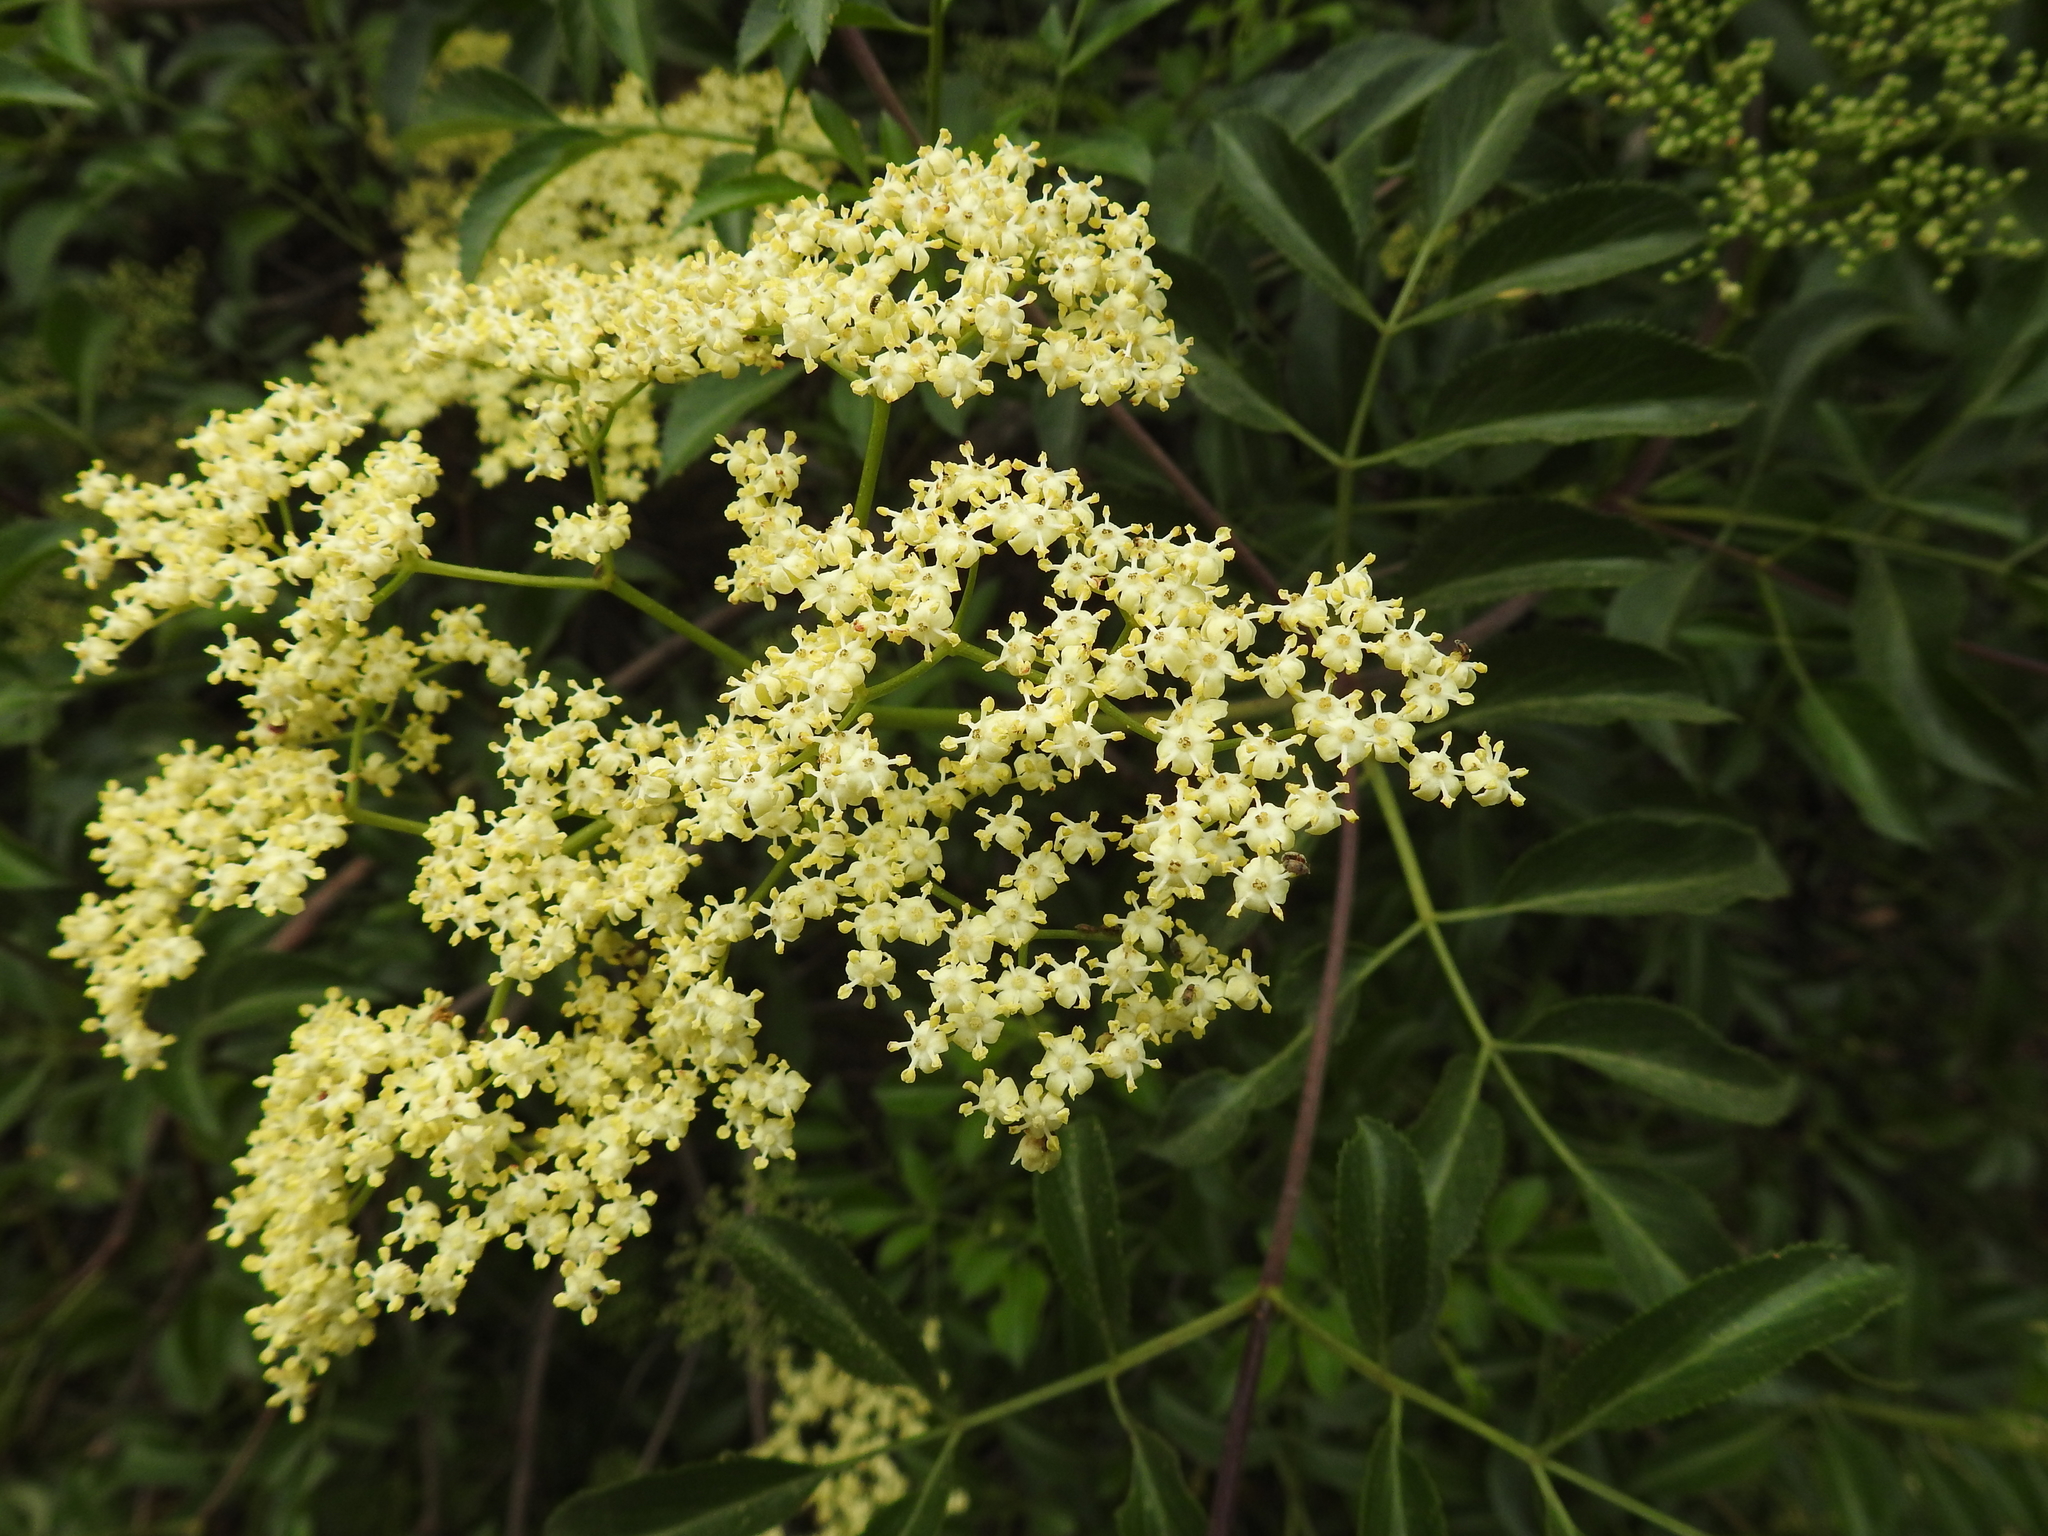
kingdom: Plantae
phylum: Tracheophyta
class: Magnoliopsida
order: Dipsacales
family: Viburnaceae
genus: Sambucus
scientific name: Sambucus cerulea
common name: Blue elder
